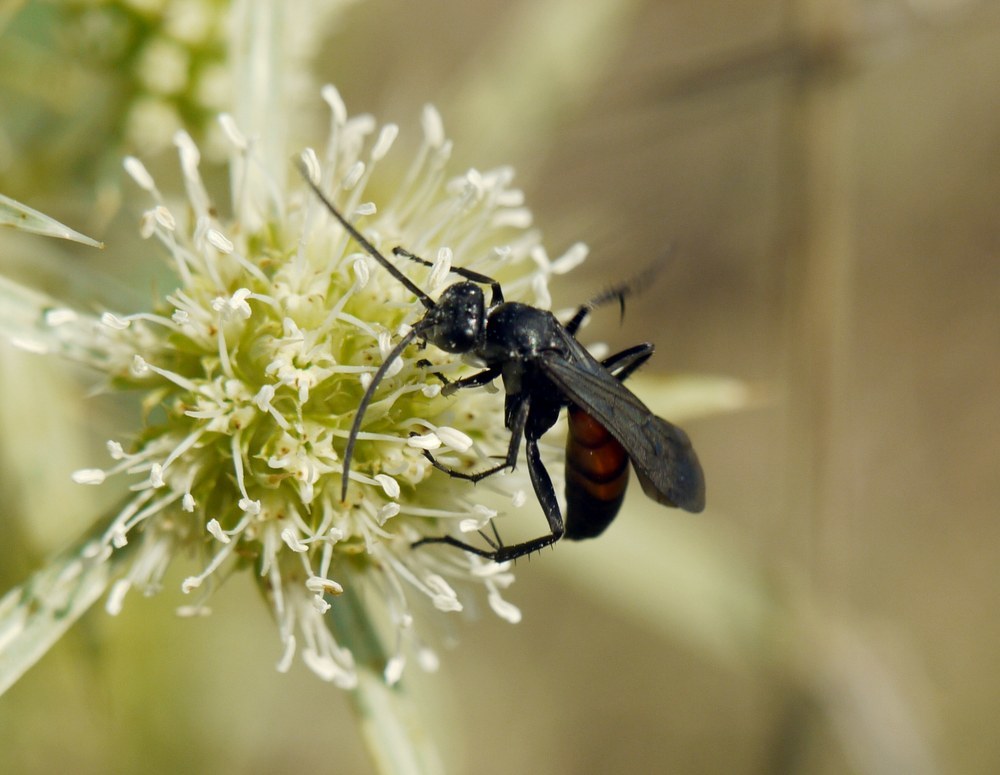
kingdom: Animalia
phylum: Arthropoda
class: Insecta
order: Hymenoptera
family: Pompilidae
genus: Anoplius
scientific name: Anoplius viaticus
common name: Black banded spider wasp
